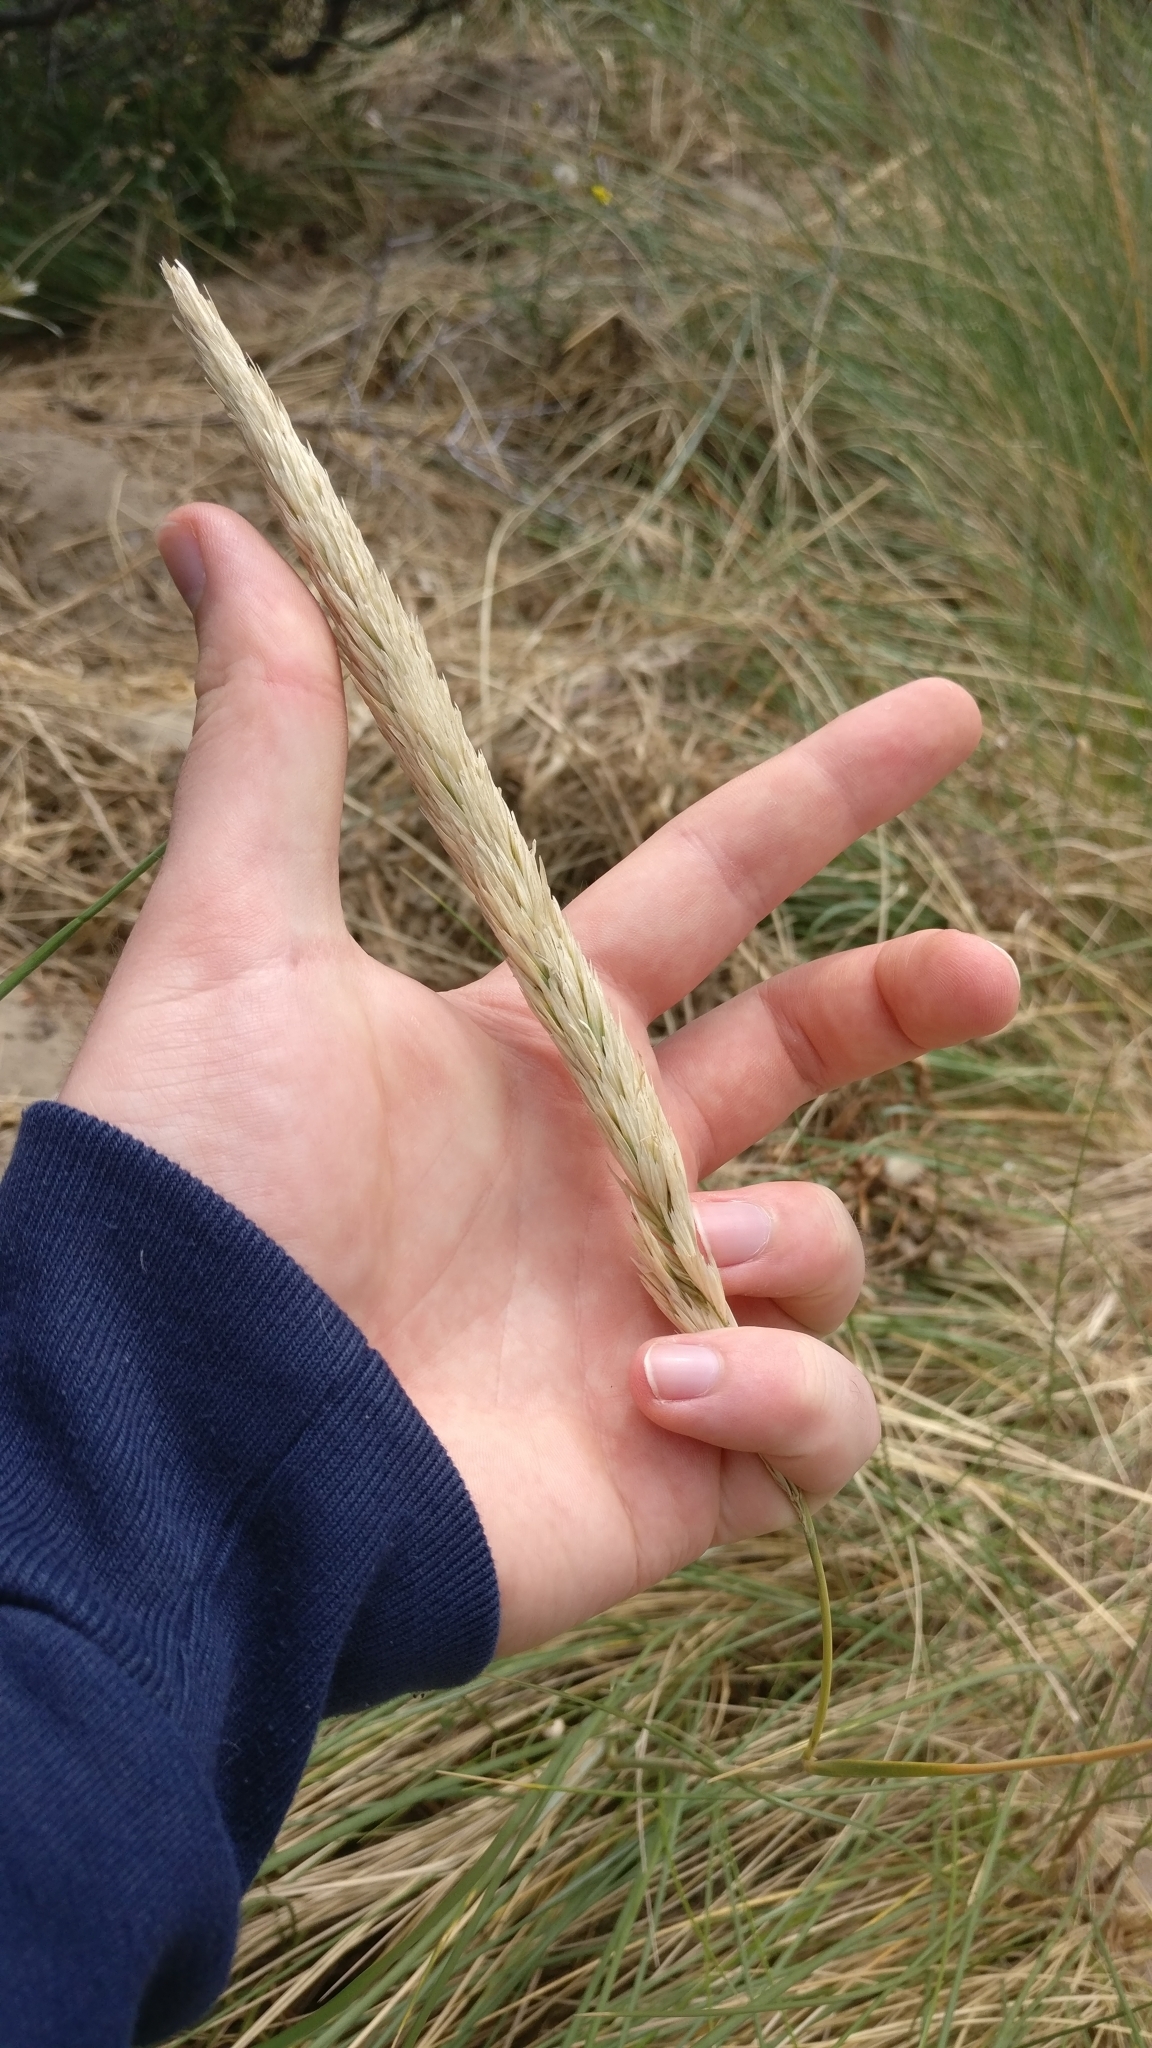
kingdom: Plantae
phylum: Tracheophyta
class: Liliopsida
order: Poales
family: Poaceae
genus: Calamagrostis
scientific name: Calamagrostis arenaria
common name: European beachgrass
